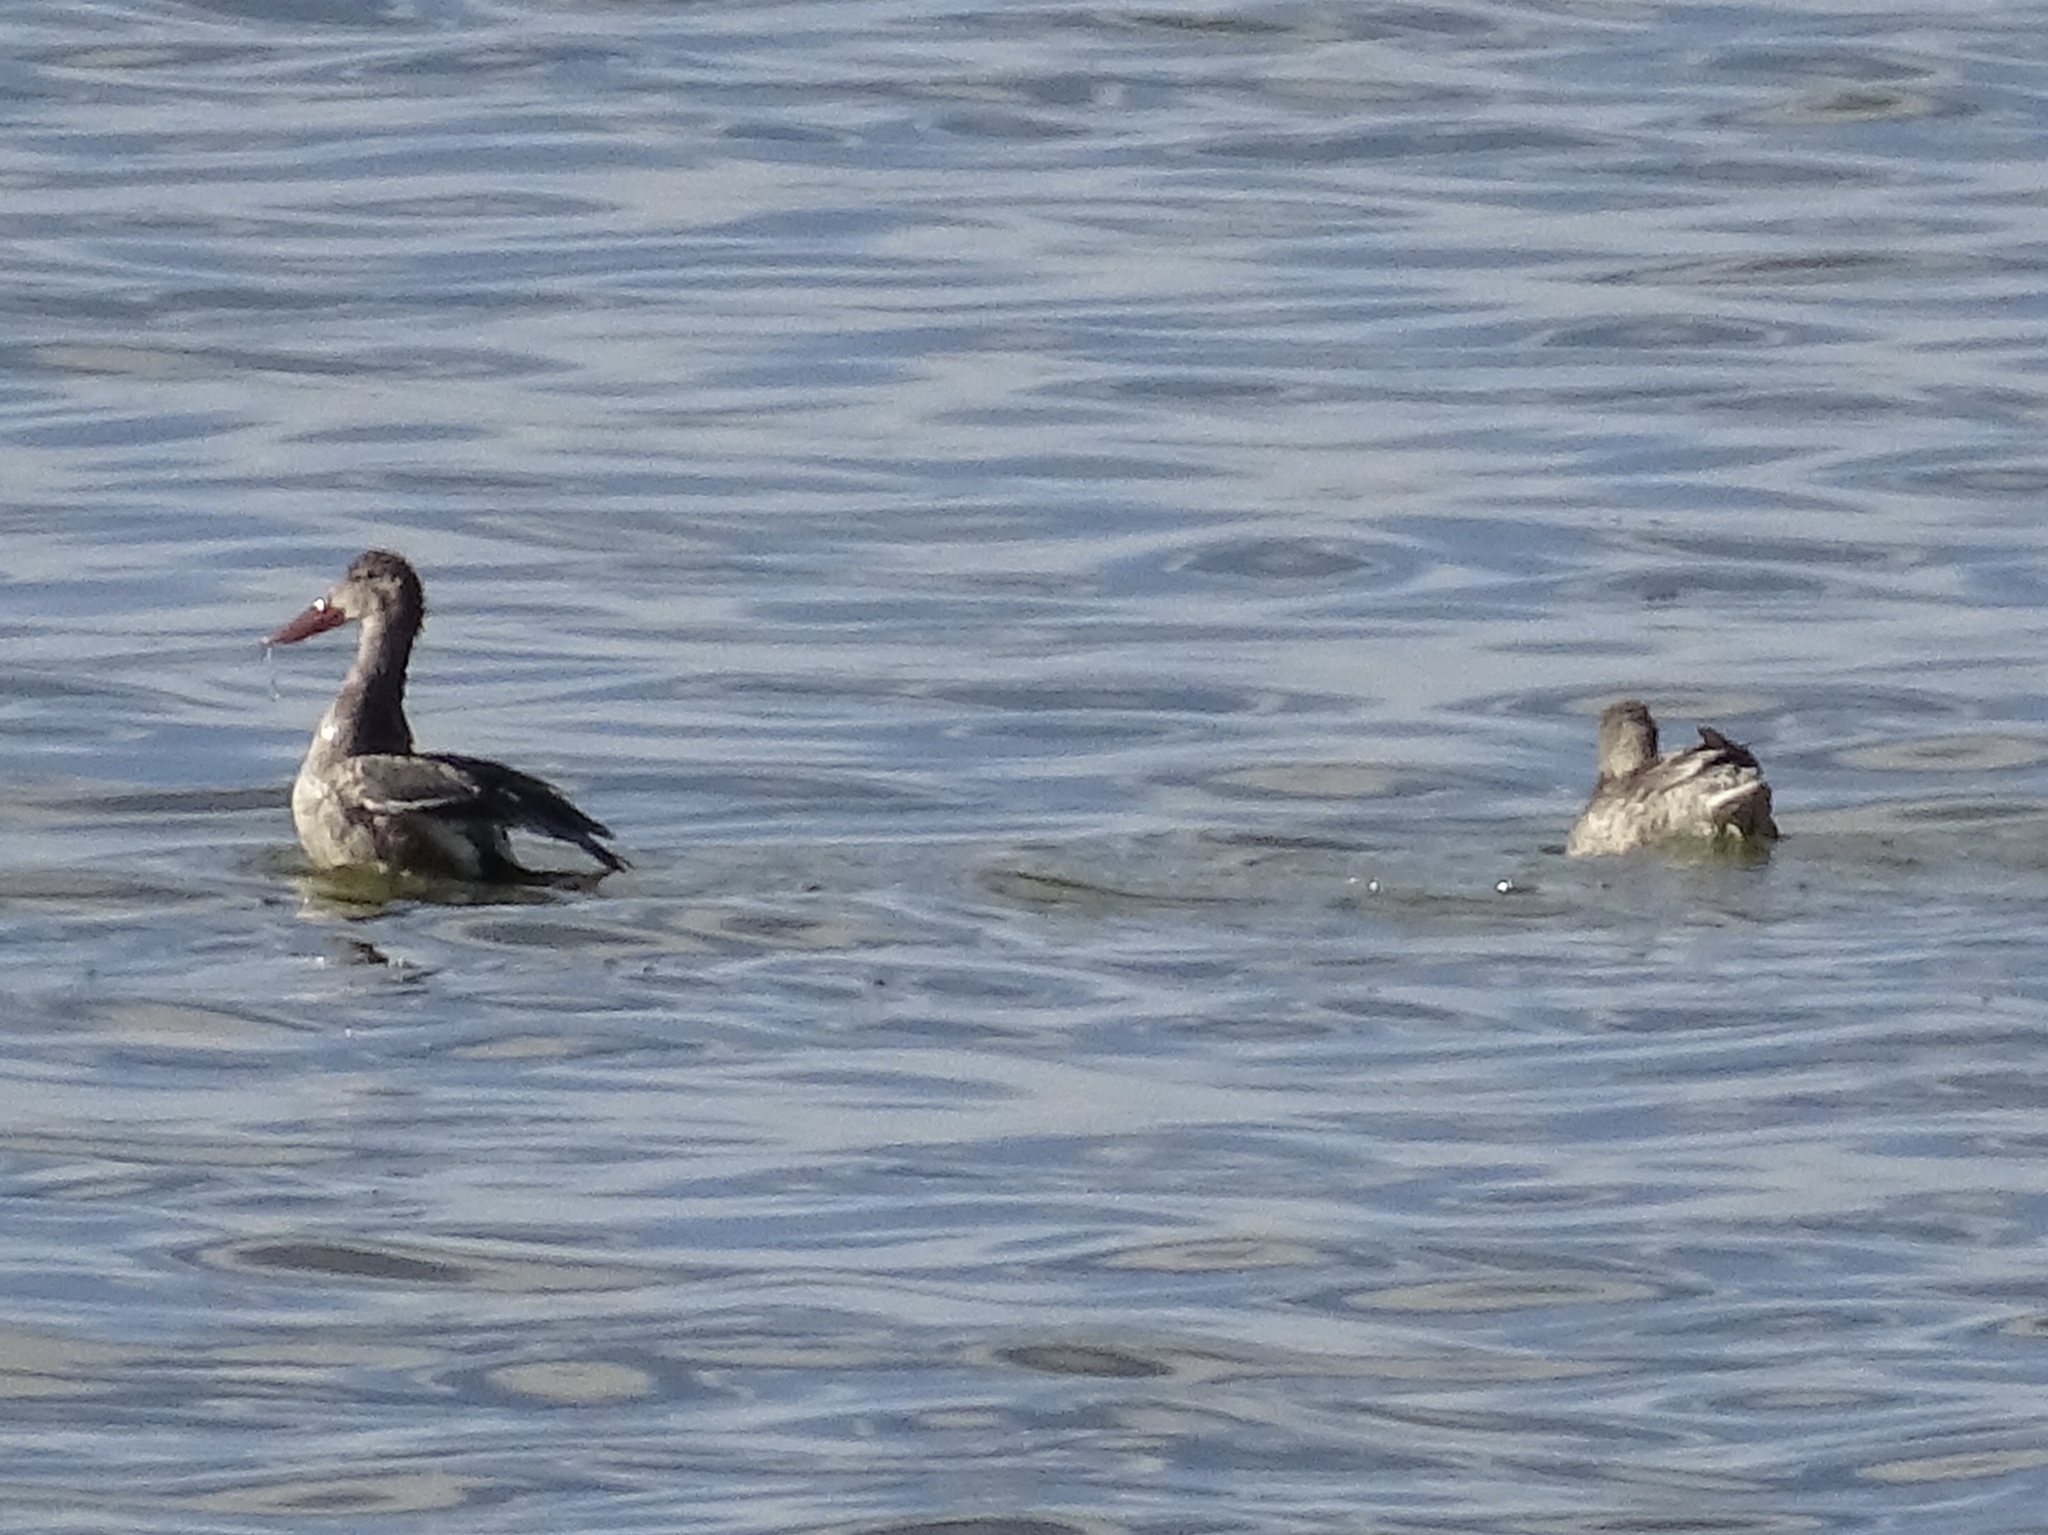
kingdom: Animalia
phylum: Chordata
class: Aves
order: Anseriformes
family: Anatidae
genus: Spatula
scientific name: Spatula clypeata
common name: Northern shoveler
